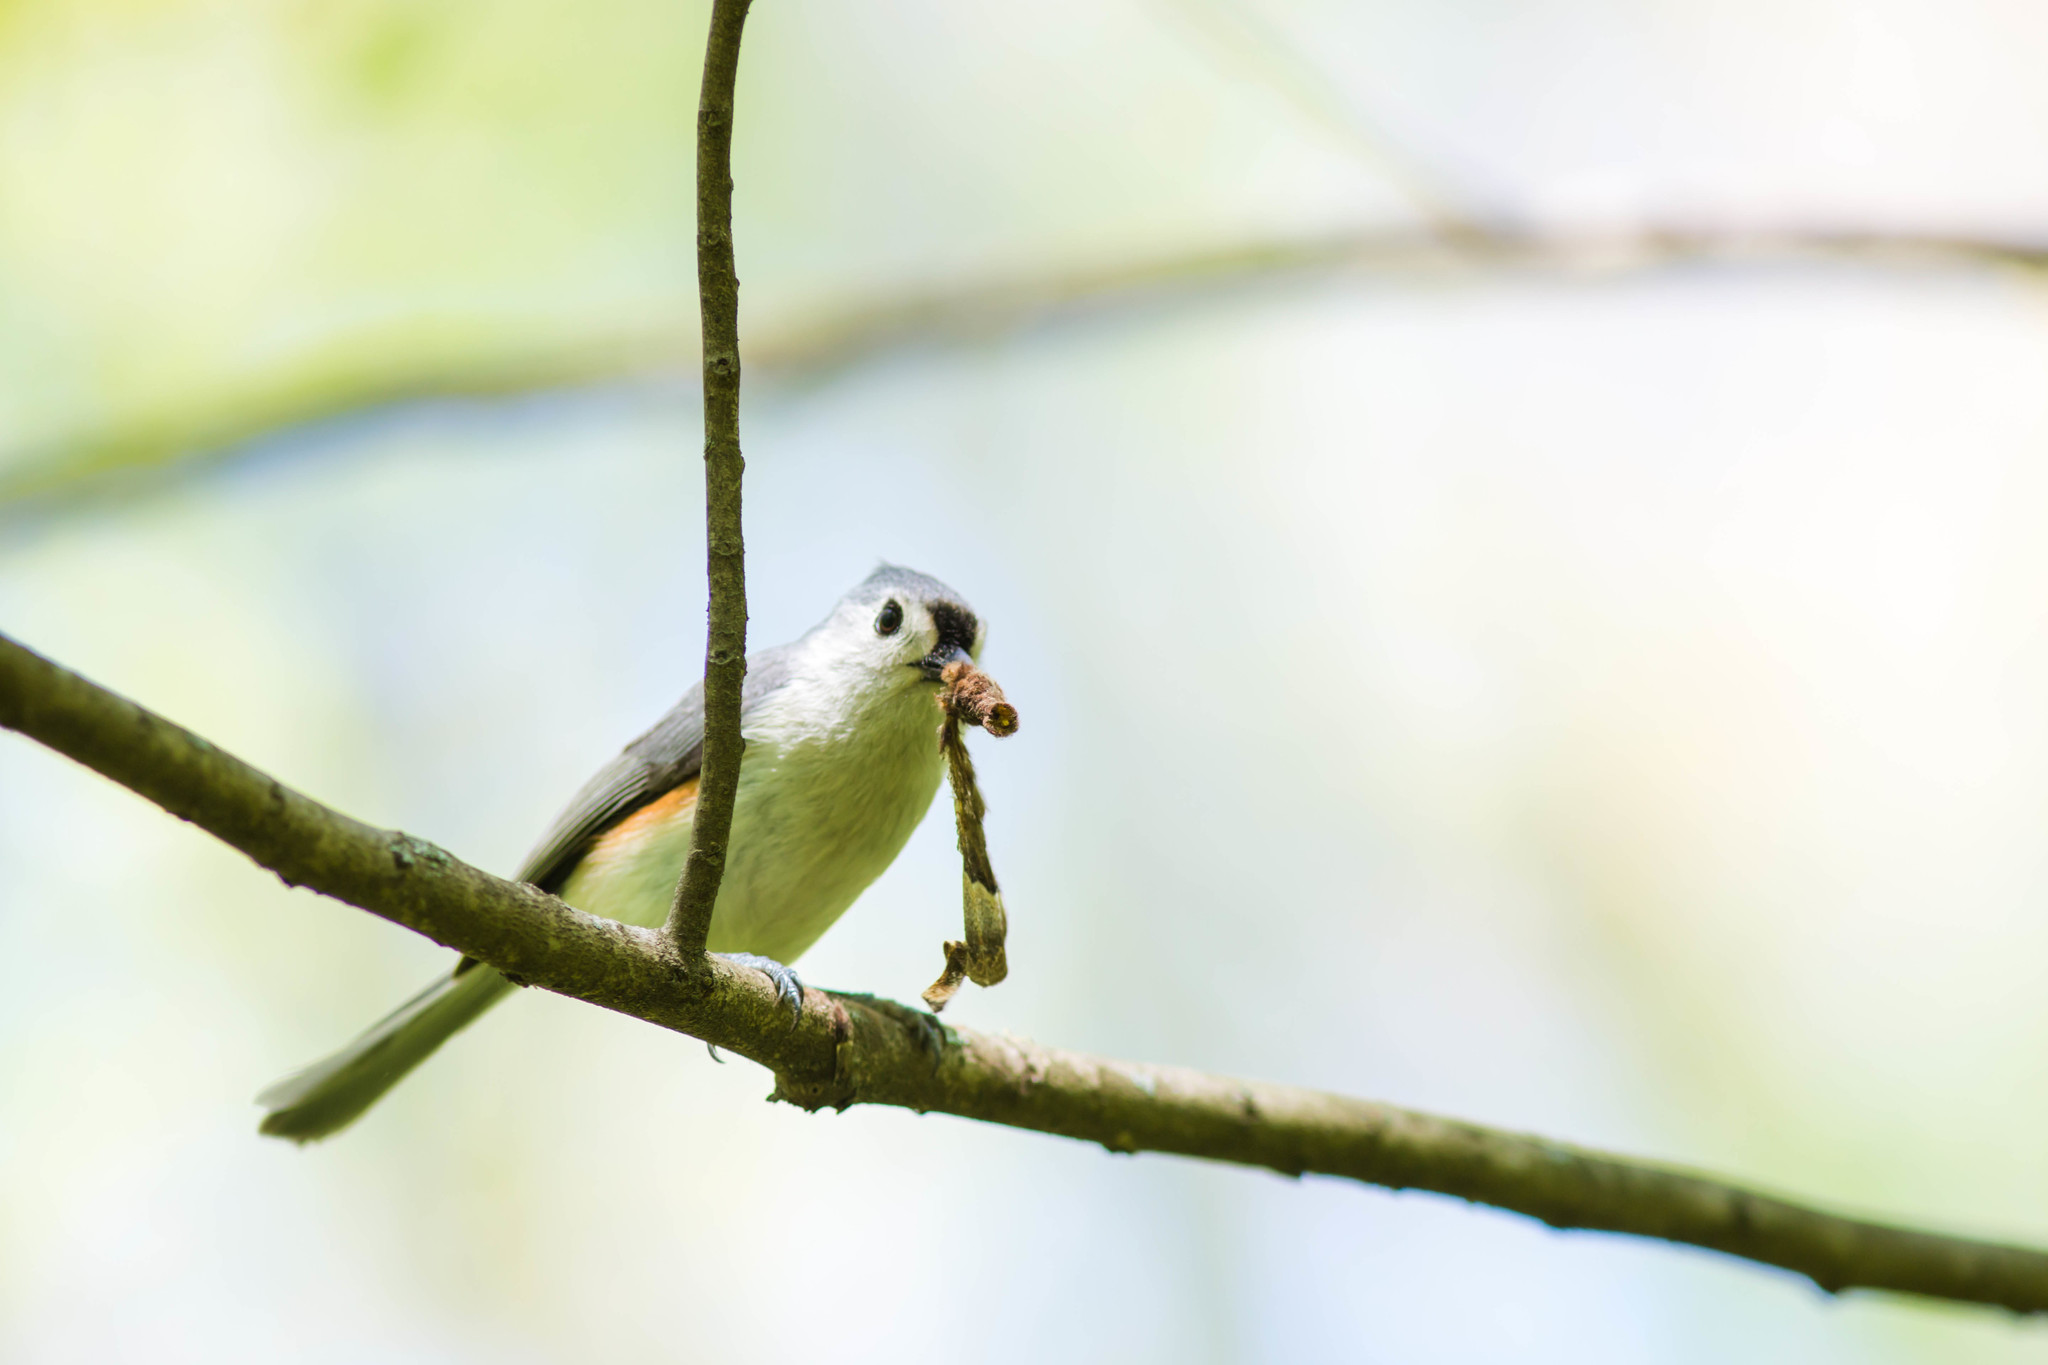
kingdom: Animalia
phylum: Chordata
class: Aves
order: Passeriformes
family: Paridae
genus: Baeolophus
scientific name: Baeolophus bicolor
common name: Tufted titmouse
